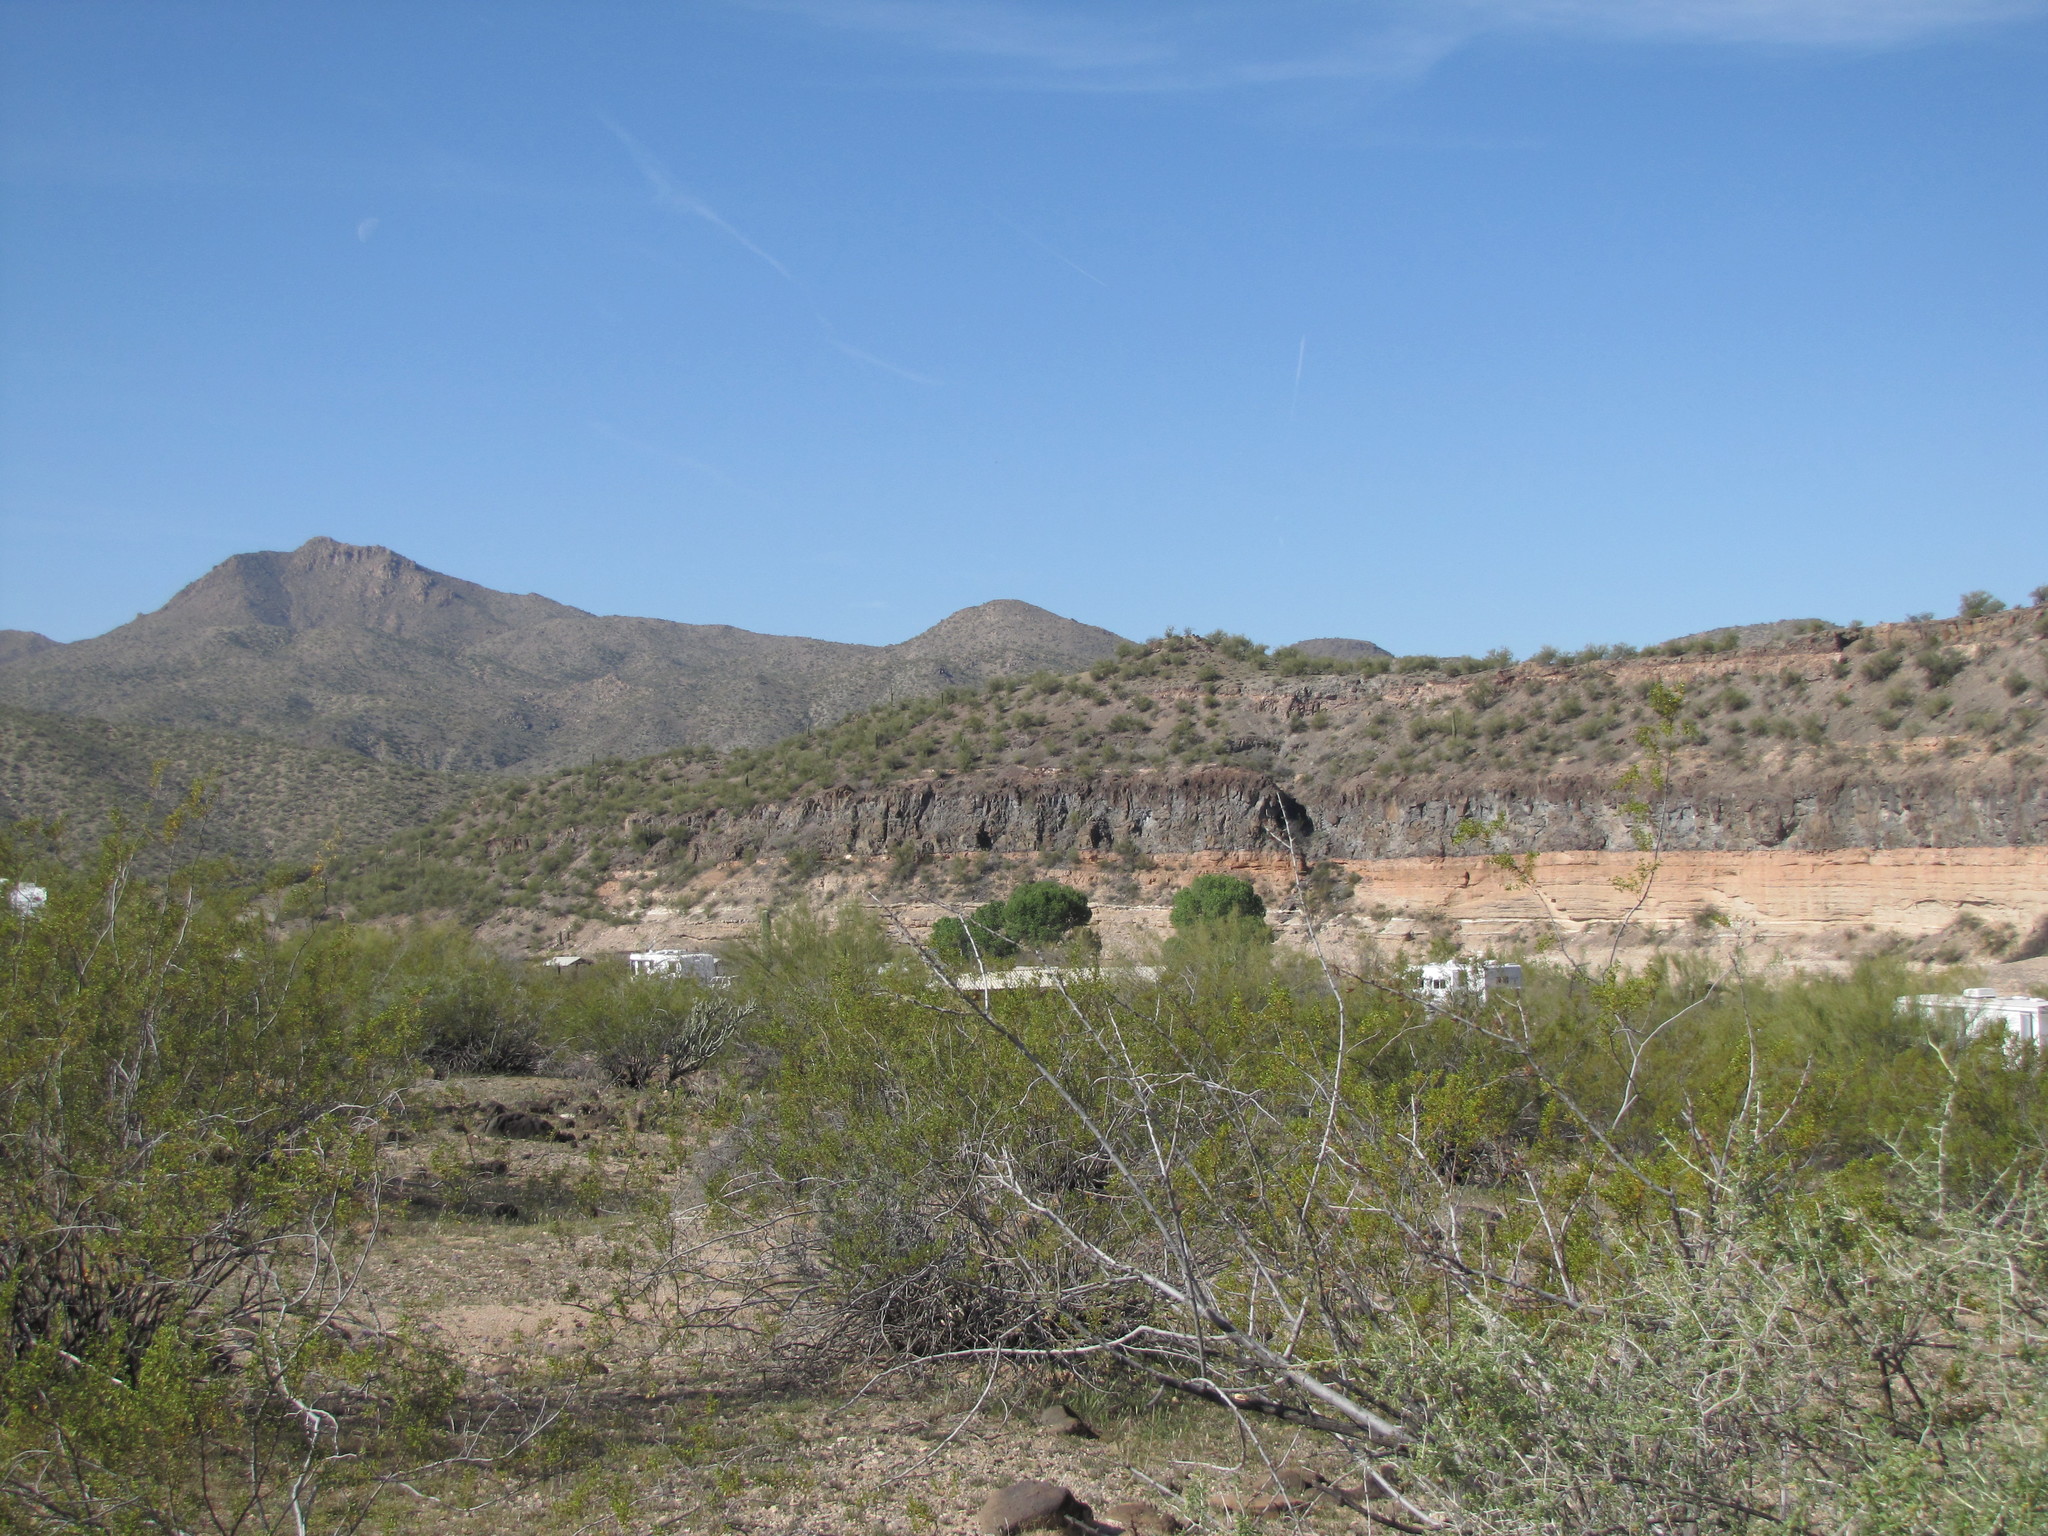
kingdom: Plantae
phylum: Tracheophyta
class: Magnoliopsida
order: Zygophyllales
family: Zygophyllaceae
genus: Larrea
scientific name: Larrea tridentata
